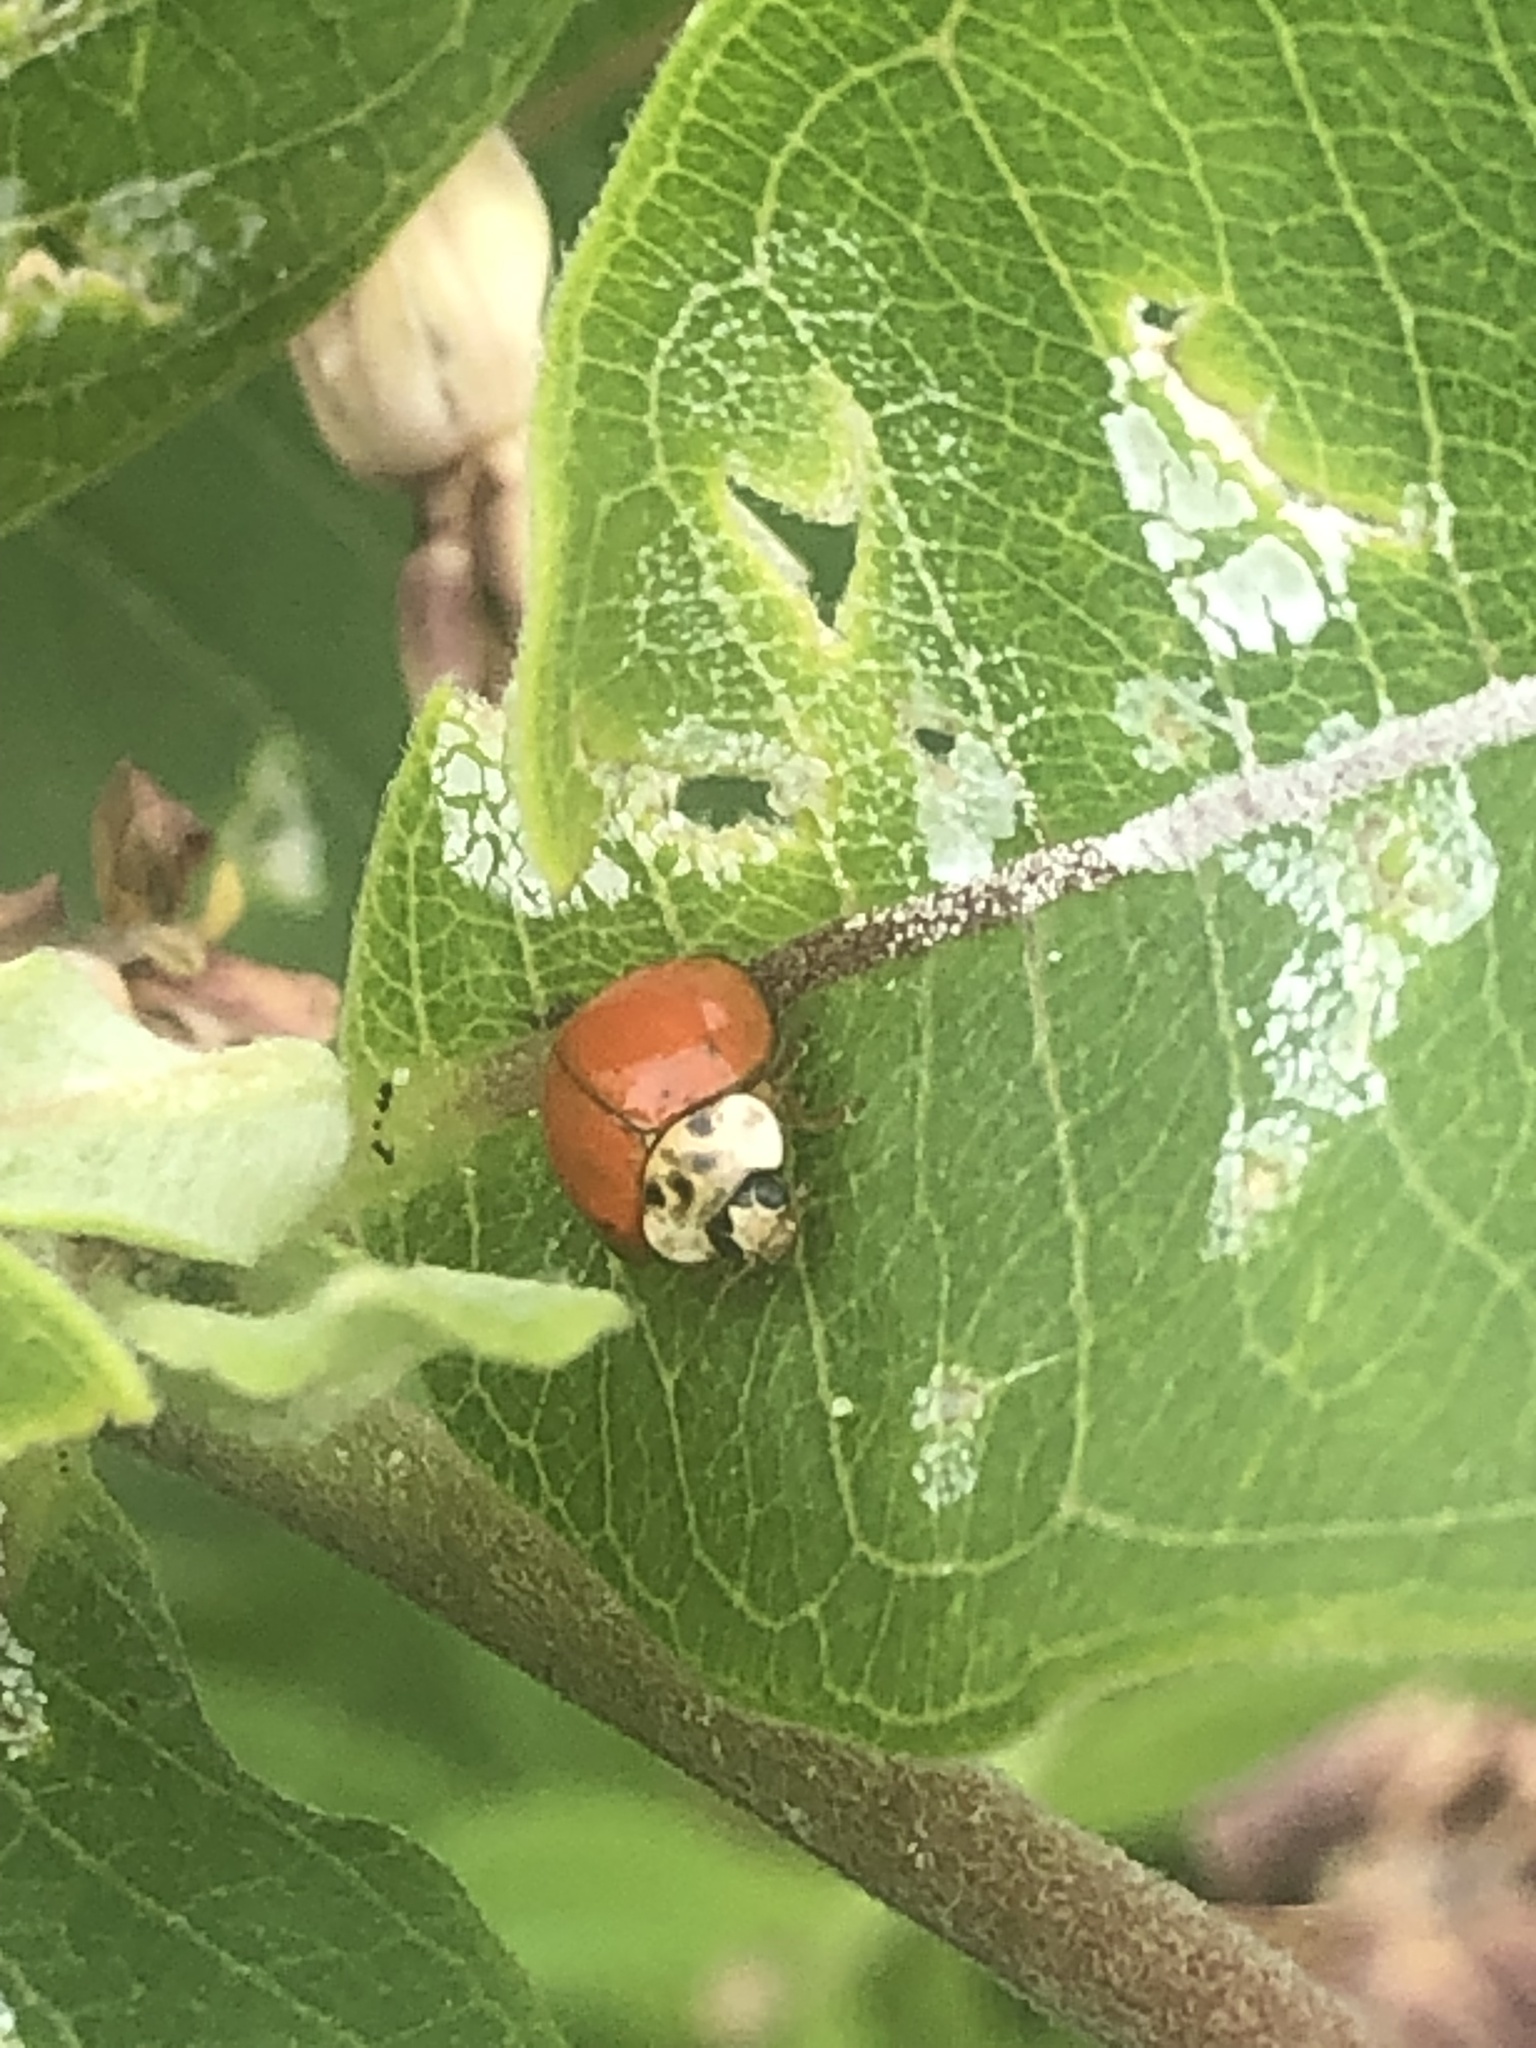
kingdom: Animalia
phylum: Arthropoda
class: Insecta
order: Coleoptera
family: Coccinellidae
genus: Harmonia
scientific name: Harmonia axyridis
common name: Harlequin ladybird
